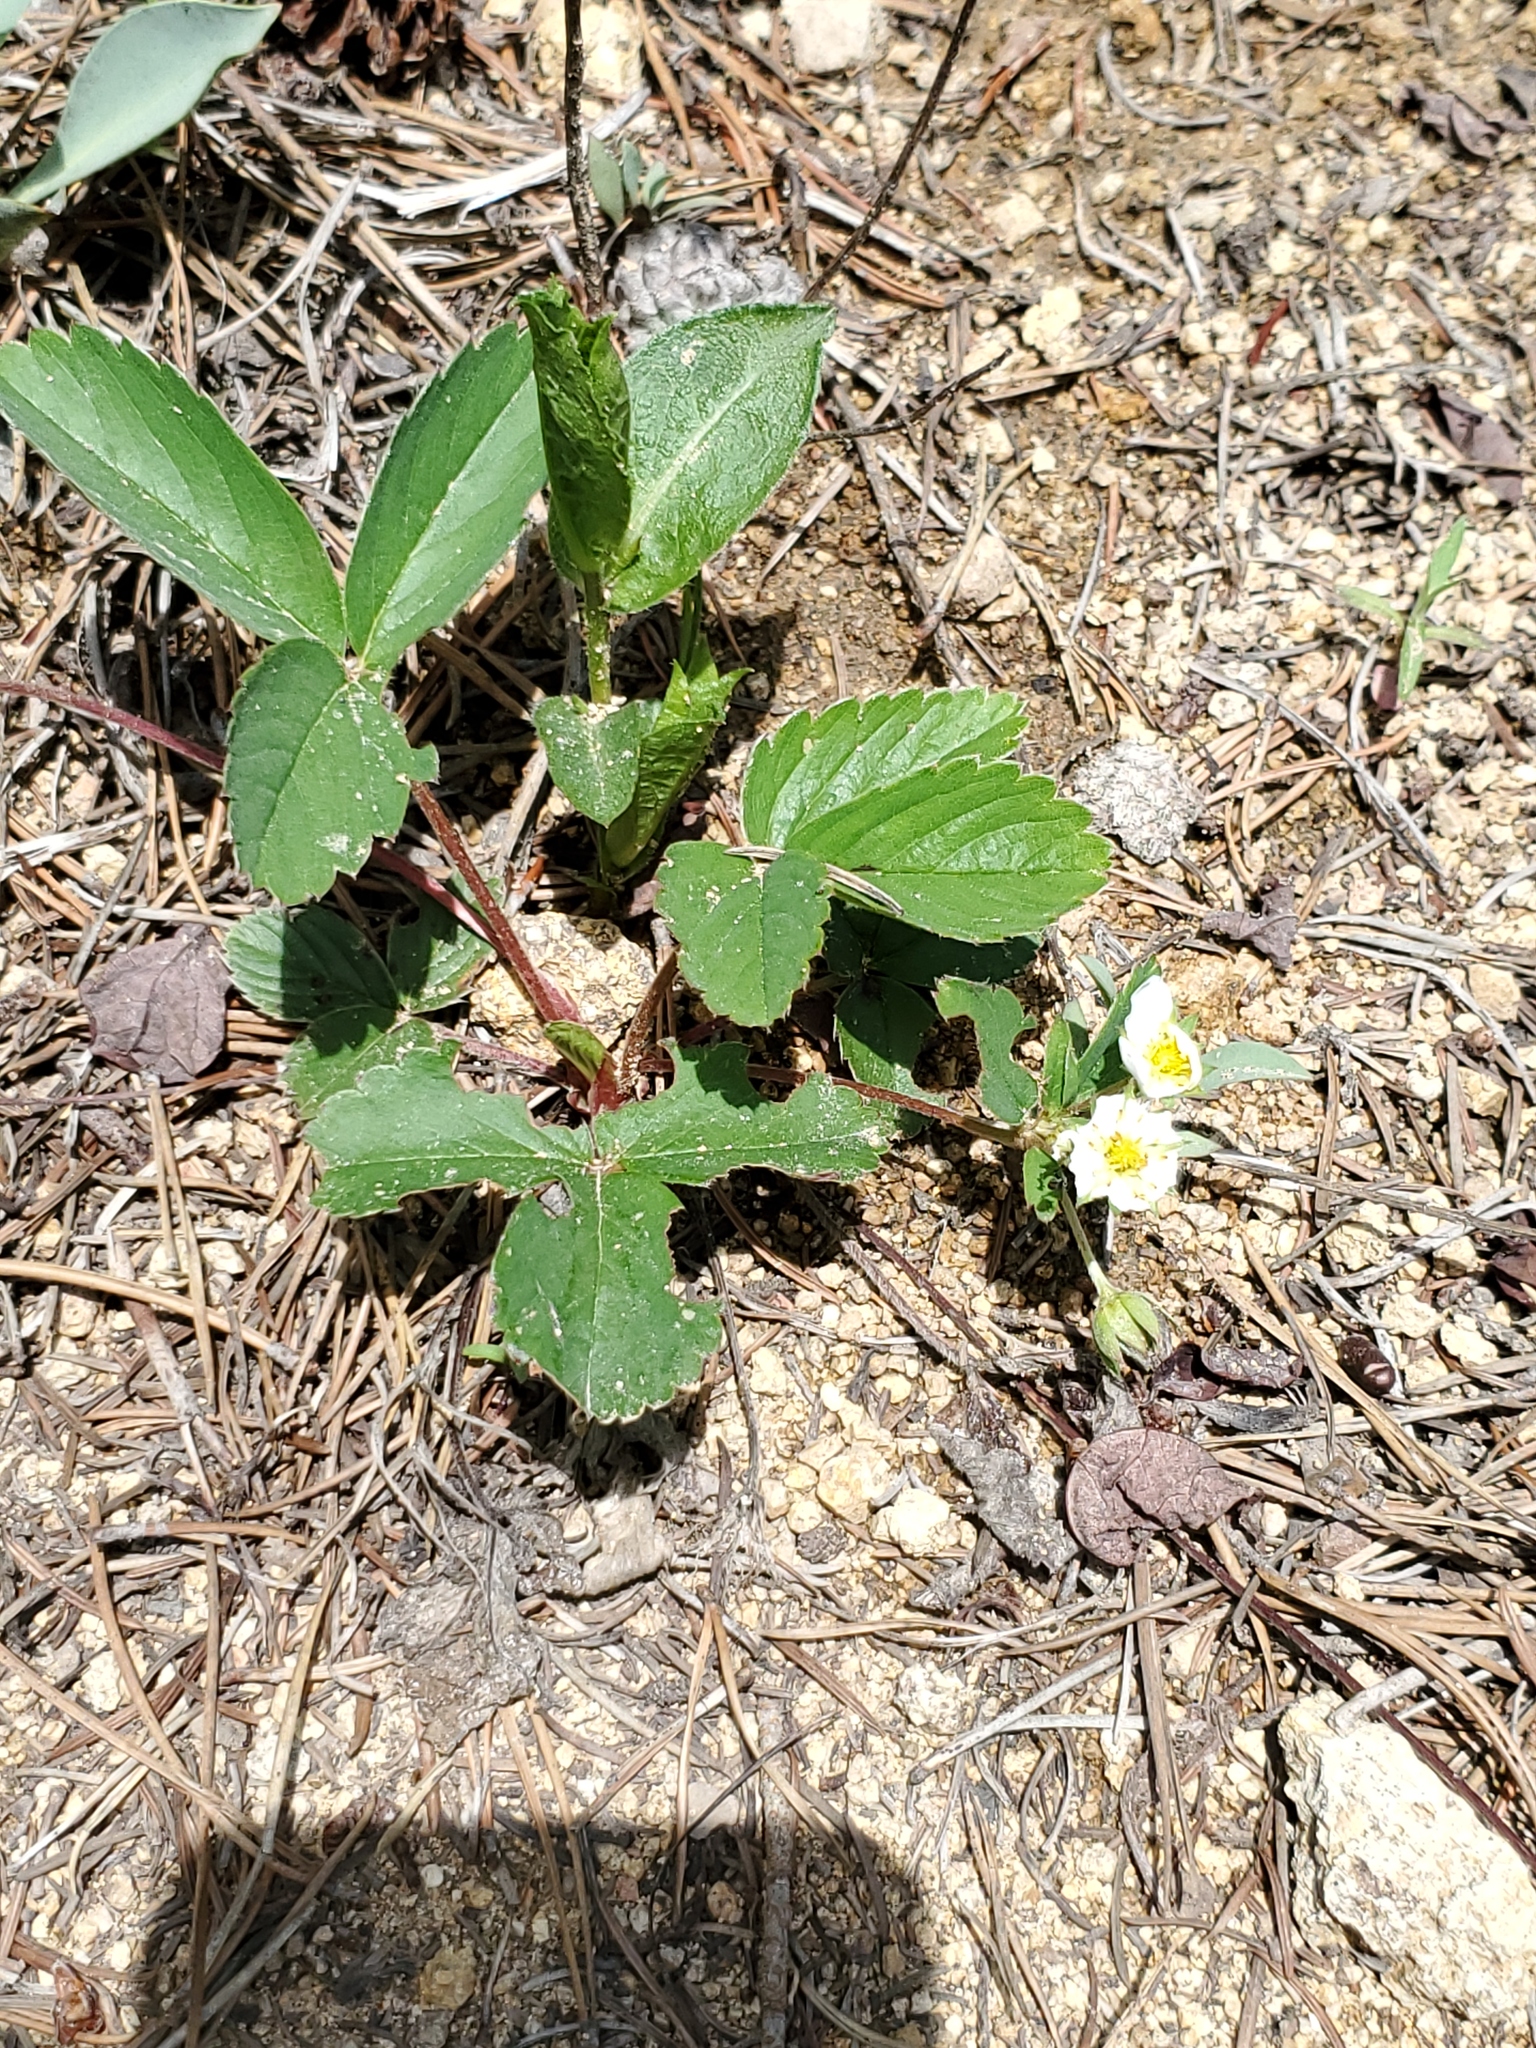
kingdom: Plantae
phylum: Tracheophyta
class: Magnoliopsida
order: Rosales
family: Rosaceae
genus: Fragaria
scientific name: Fragaria virginiana
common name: Thickleaved wild strawberry
